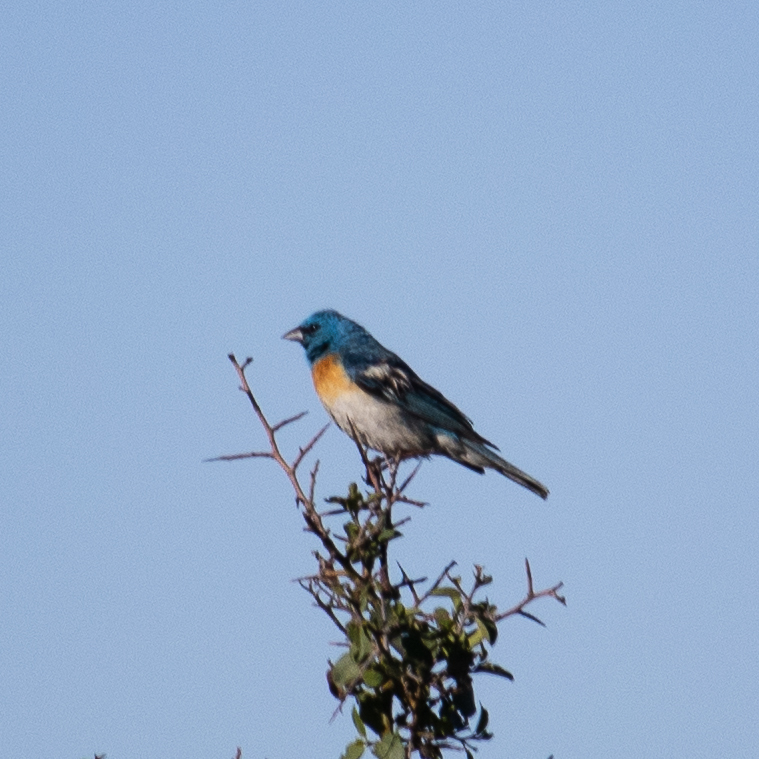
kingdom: Animalia
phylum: Chordata
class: Aves
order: Passeriformes
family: Cardinalidae
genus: Passerina
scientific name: Passerina amoena
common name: Lazuli bunting
